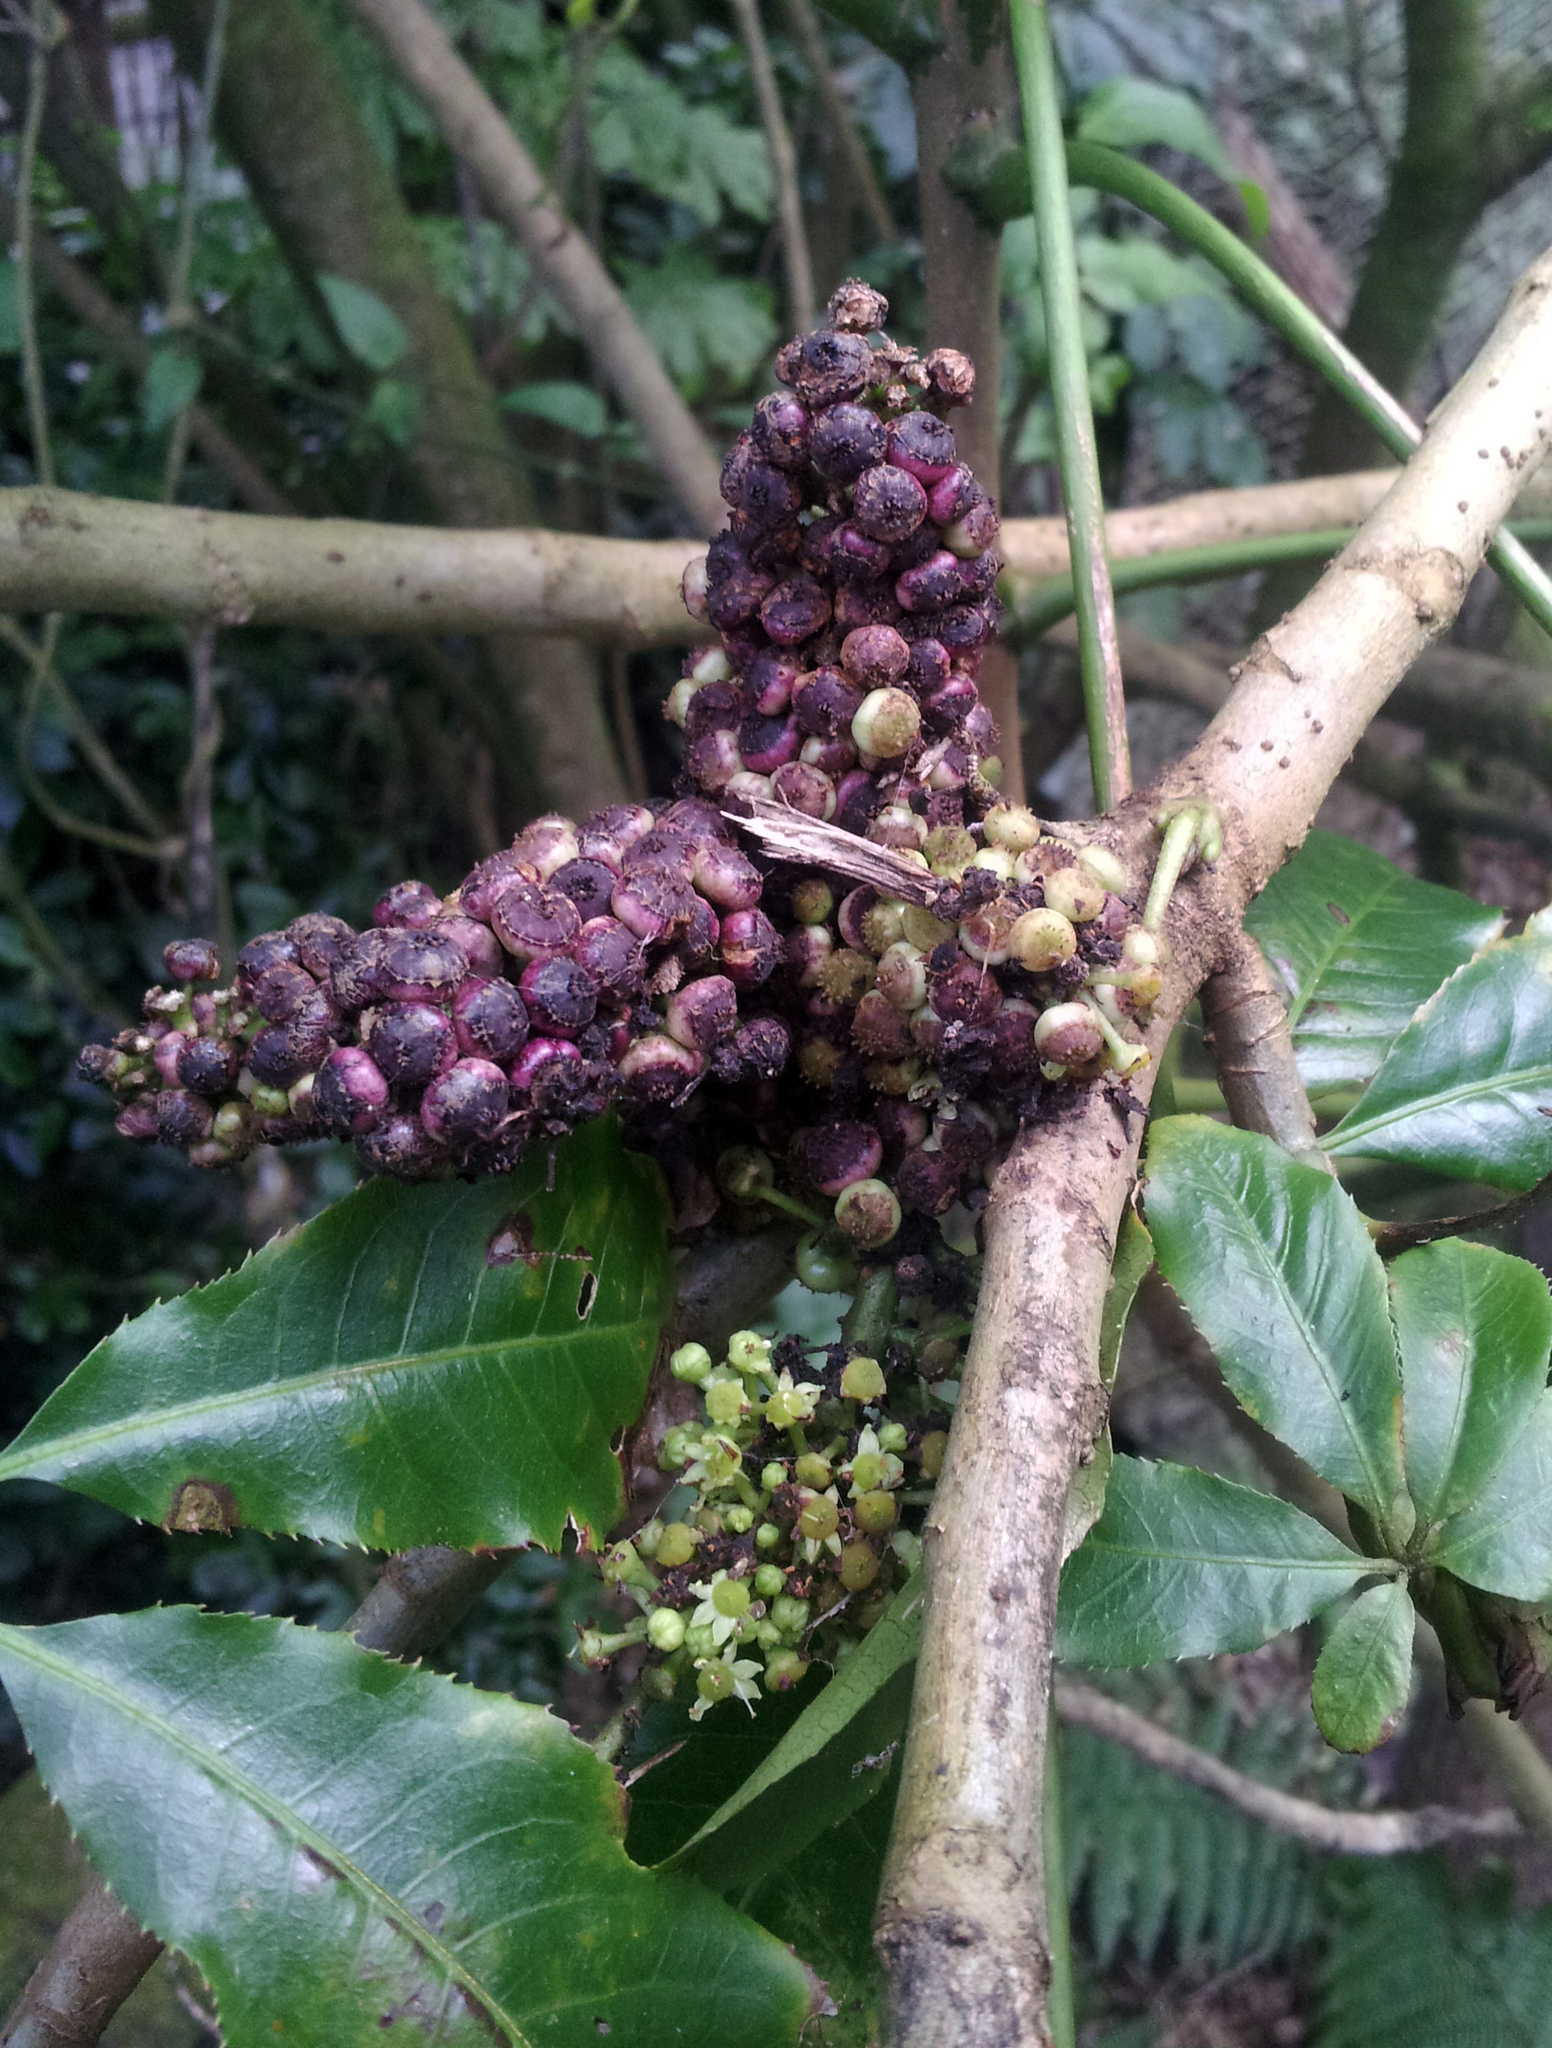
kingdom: Plantae
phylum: Tracheophyta
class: Magnoliopsida
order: Apiales
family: Araliaceae
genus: Schefflera
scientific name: Schefflera digitata
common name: Pate
